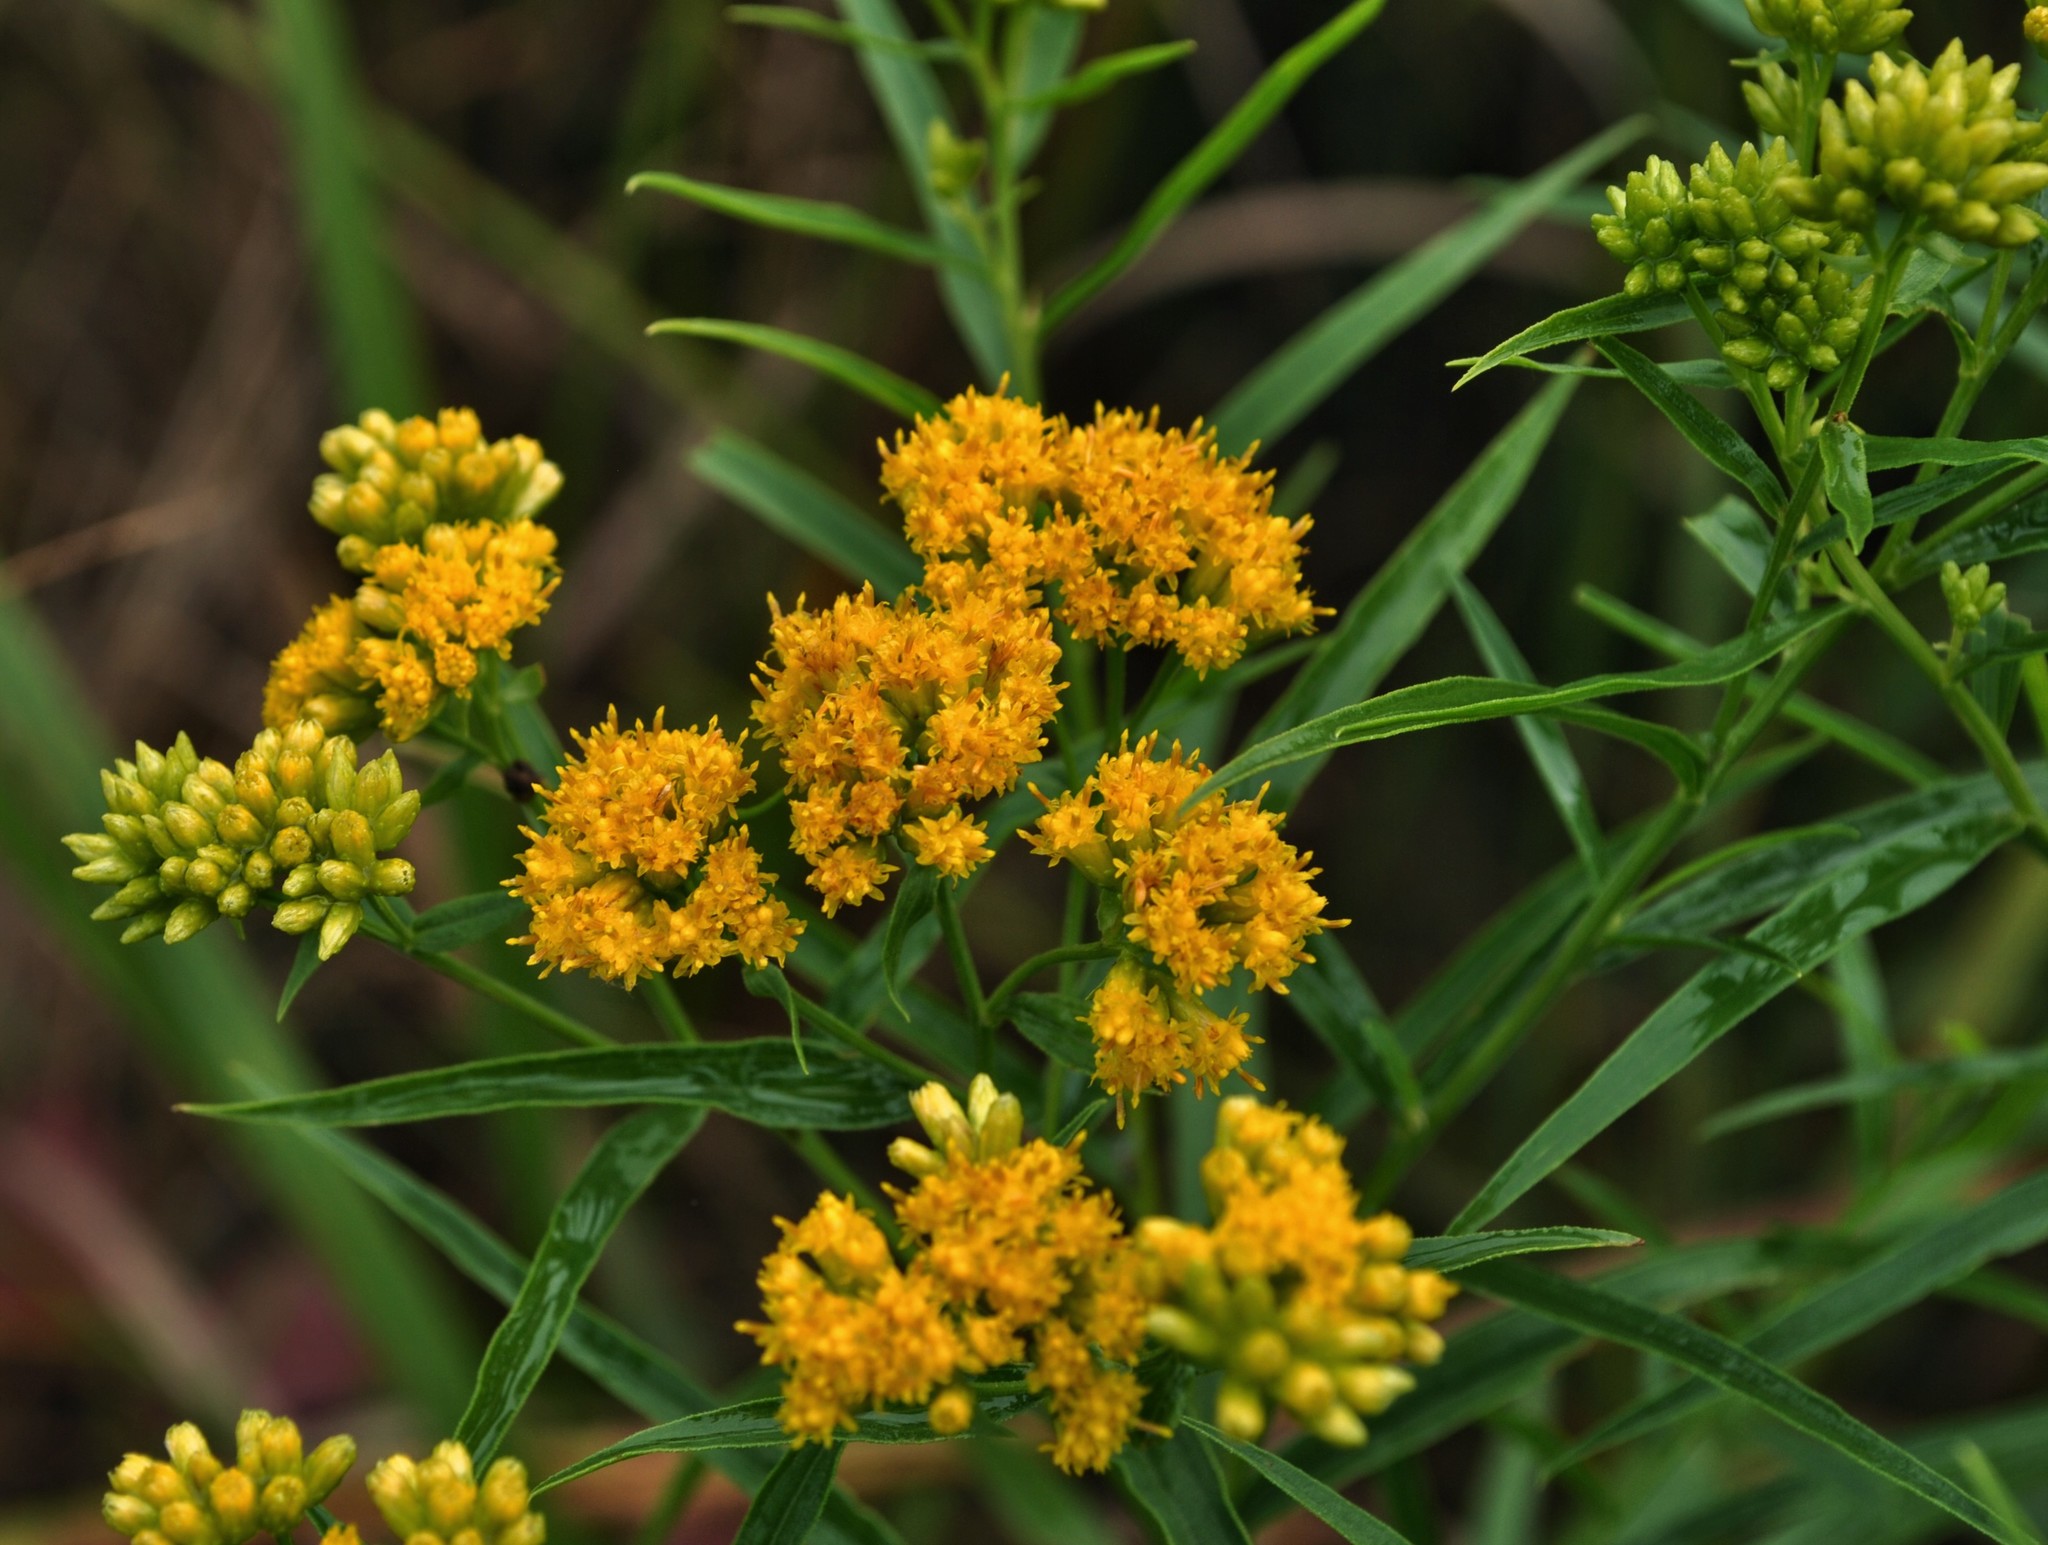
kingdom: Plantae
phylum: Tracheophyta
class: Magnoliopsida
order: Asterales
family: Asteraceae
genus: Euthamia
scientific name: Euthamia graminifolia
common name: Common goldentop
